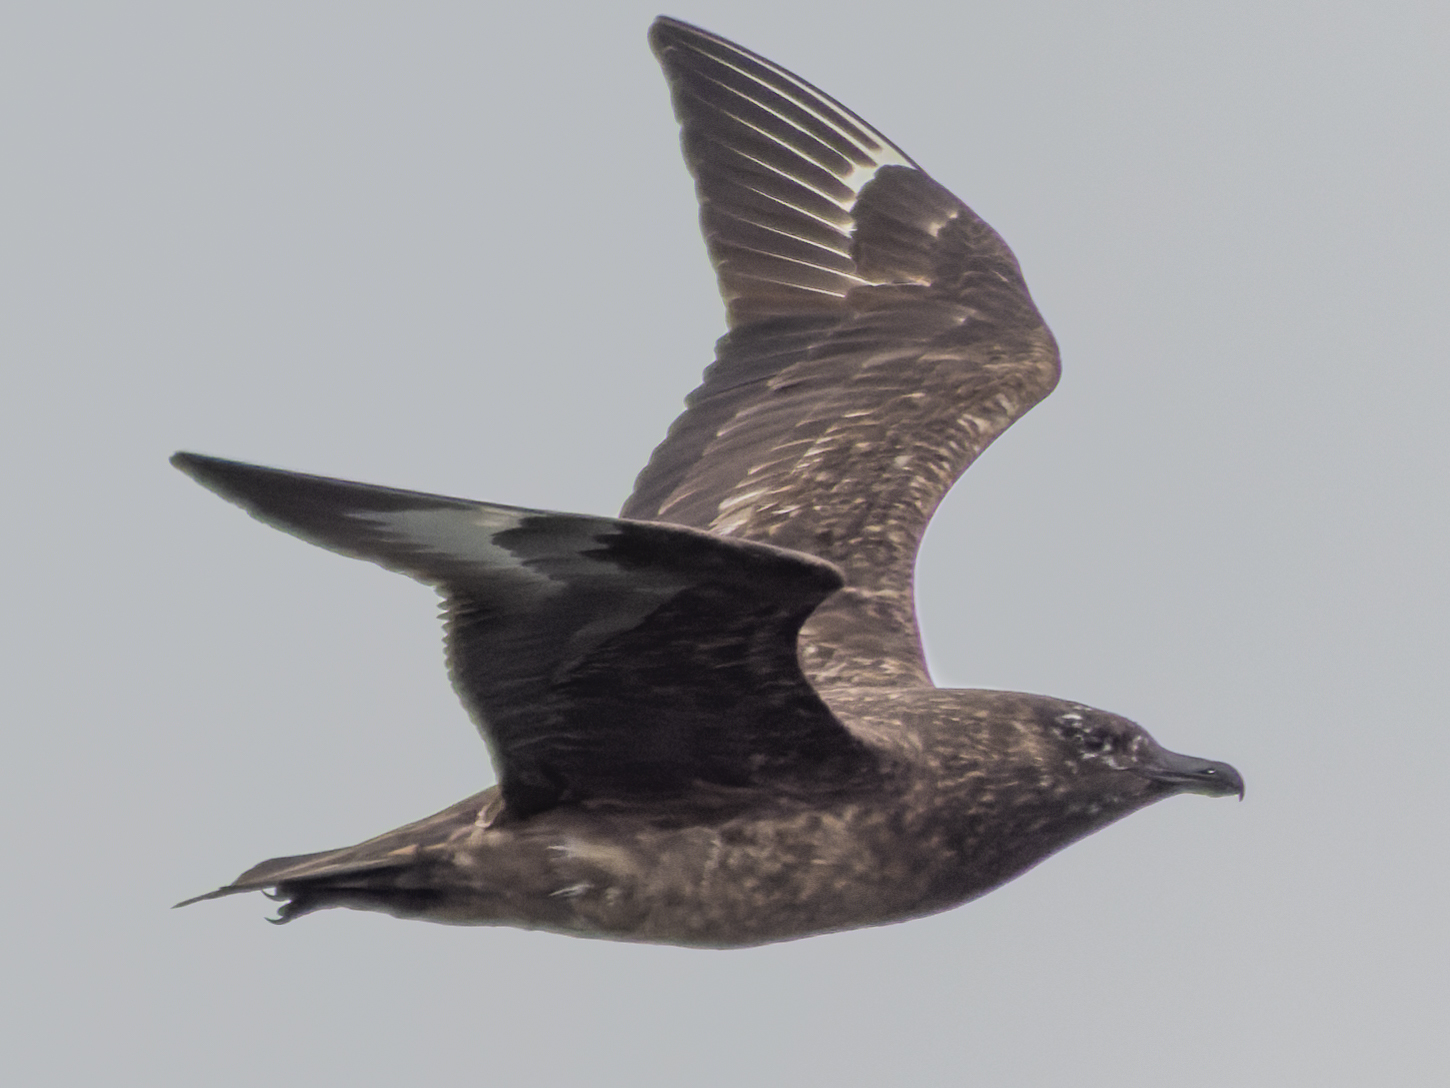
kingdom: Animalia
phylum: Chordata
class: Aves
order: Charadriiformes
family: Stercorariidae
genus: Stercorarius
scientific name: Stercorarius skua
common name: Great skua
